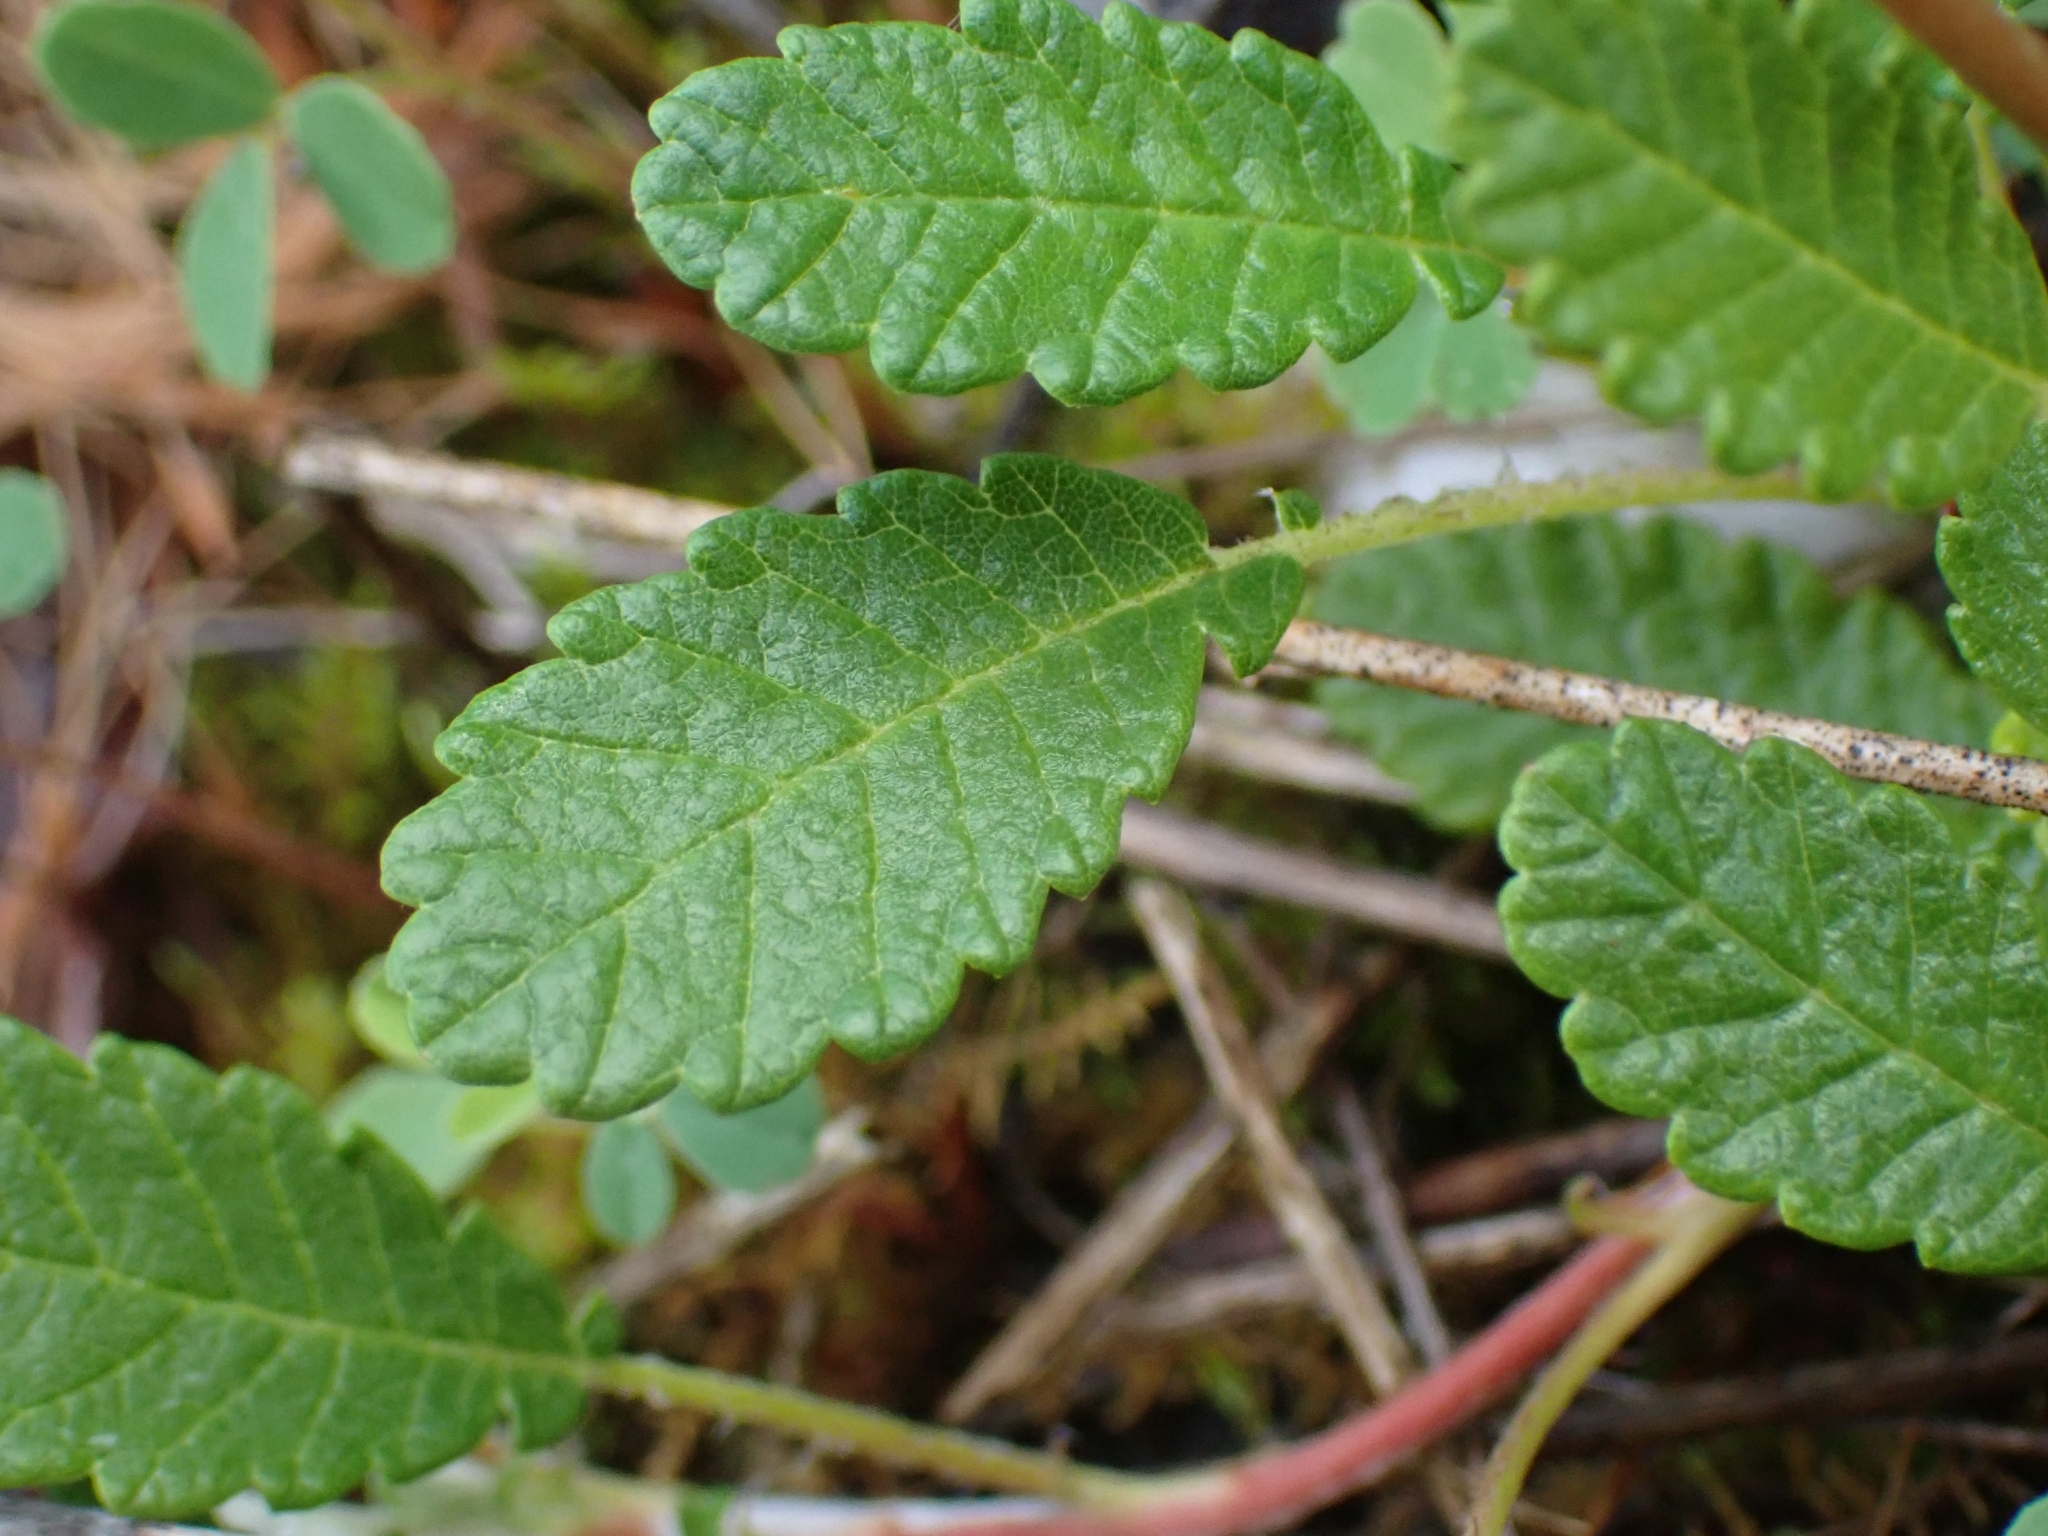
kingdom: Plantae
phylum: Tracheophyta
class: Magnoliopsida
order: Rosales
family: Rosaceae
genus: Dryas
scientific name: Dryas drummondii
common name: Drummond's dryad
